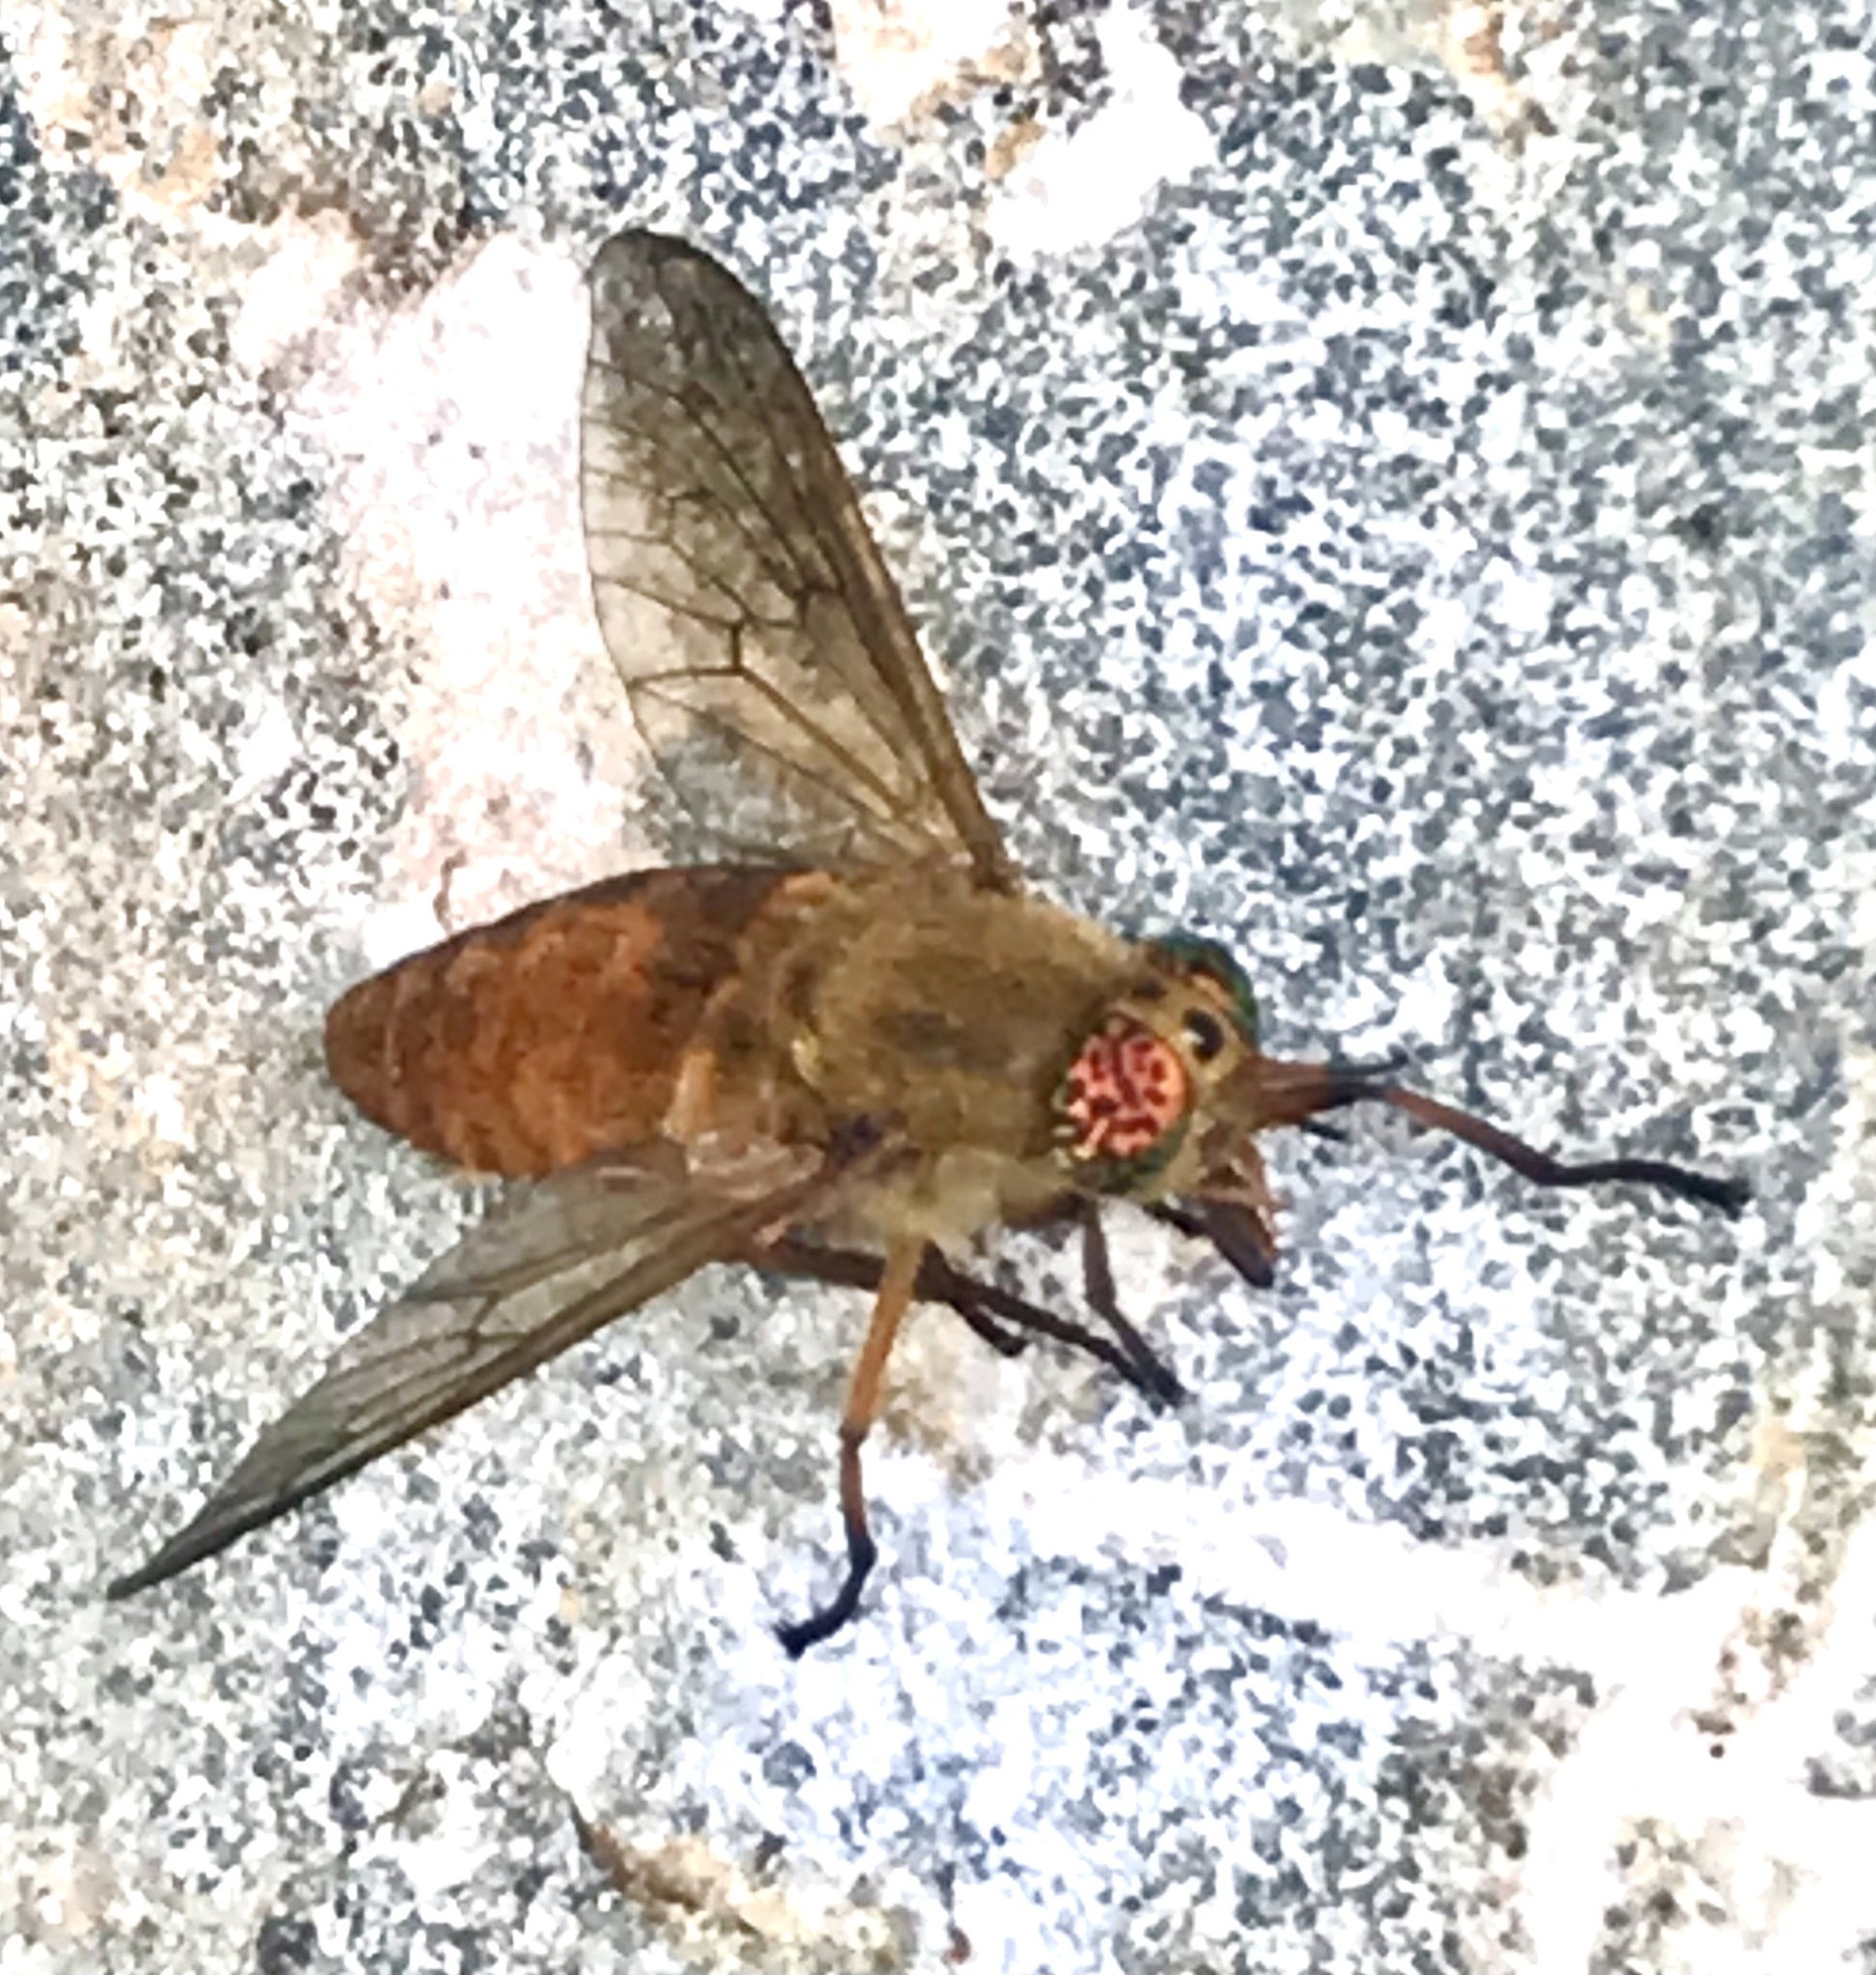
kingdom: Animalia
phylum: Arthropoda
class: Insecta
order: Diptera
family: Tabanidae
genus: Silvius
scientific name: Silvius gigantulus
